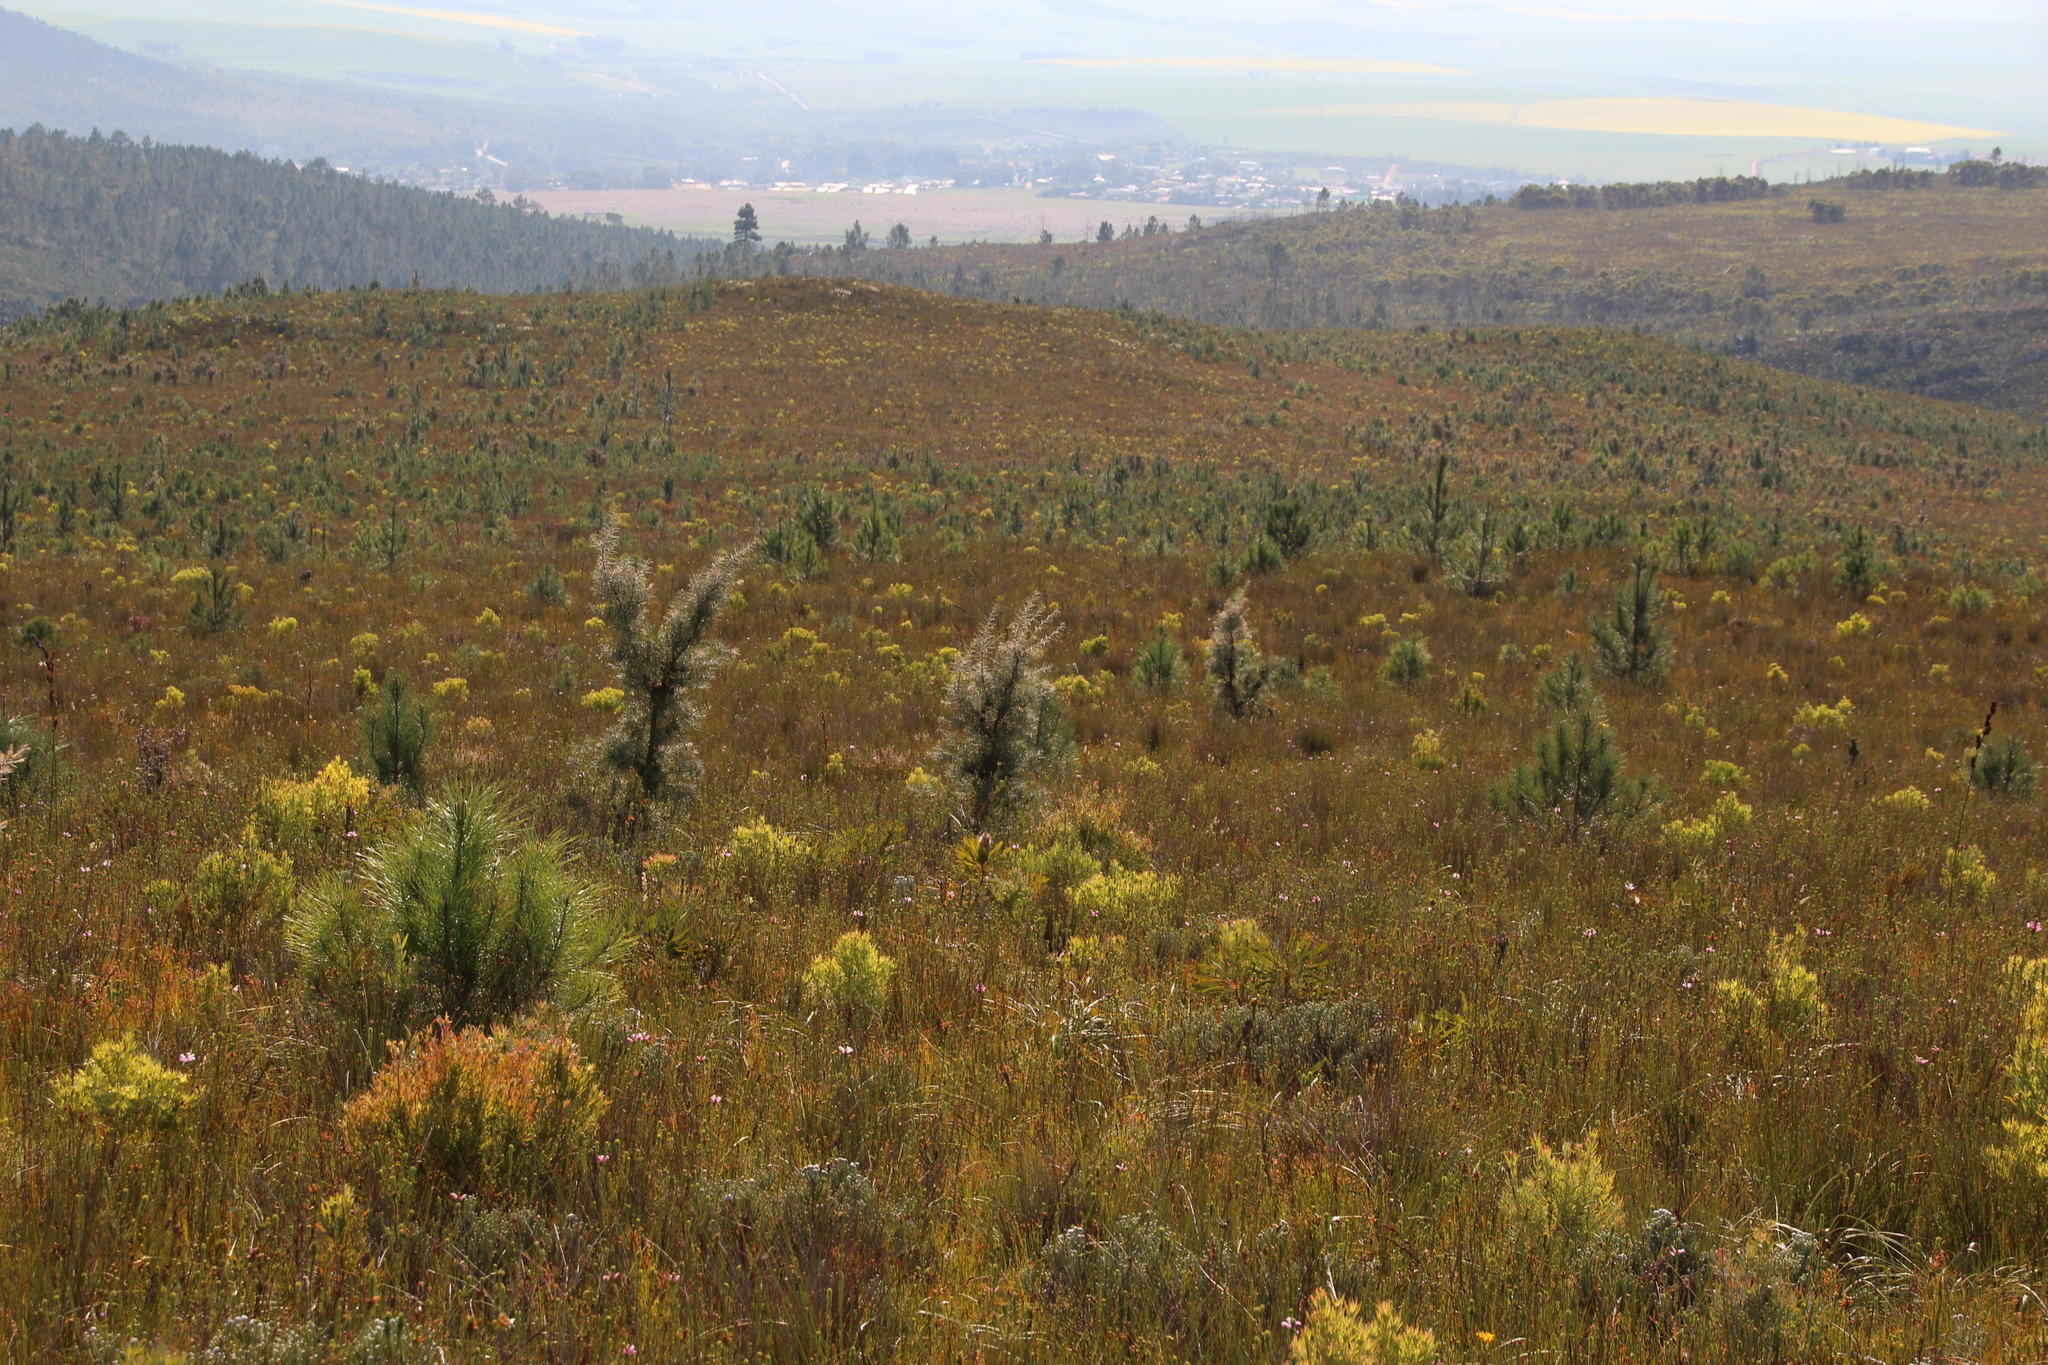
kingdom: Plantae
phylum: Tracheophyta
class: Magnoliopsida
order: Proteales
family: Proteaceae
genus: Hakea
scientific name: Hakea gibbosa
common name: Rock hakea
